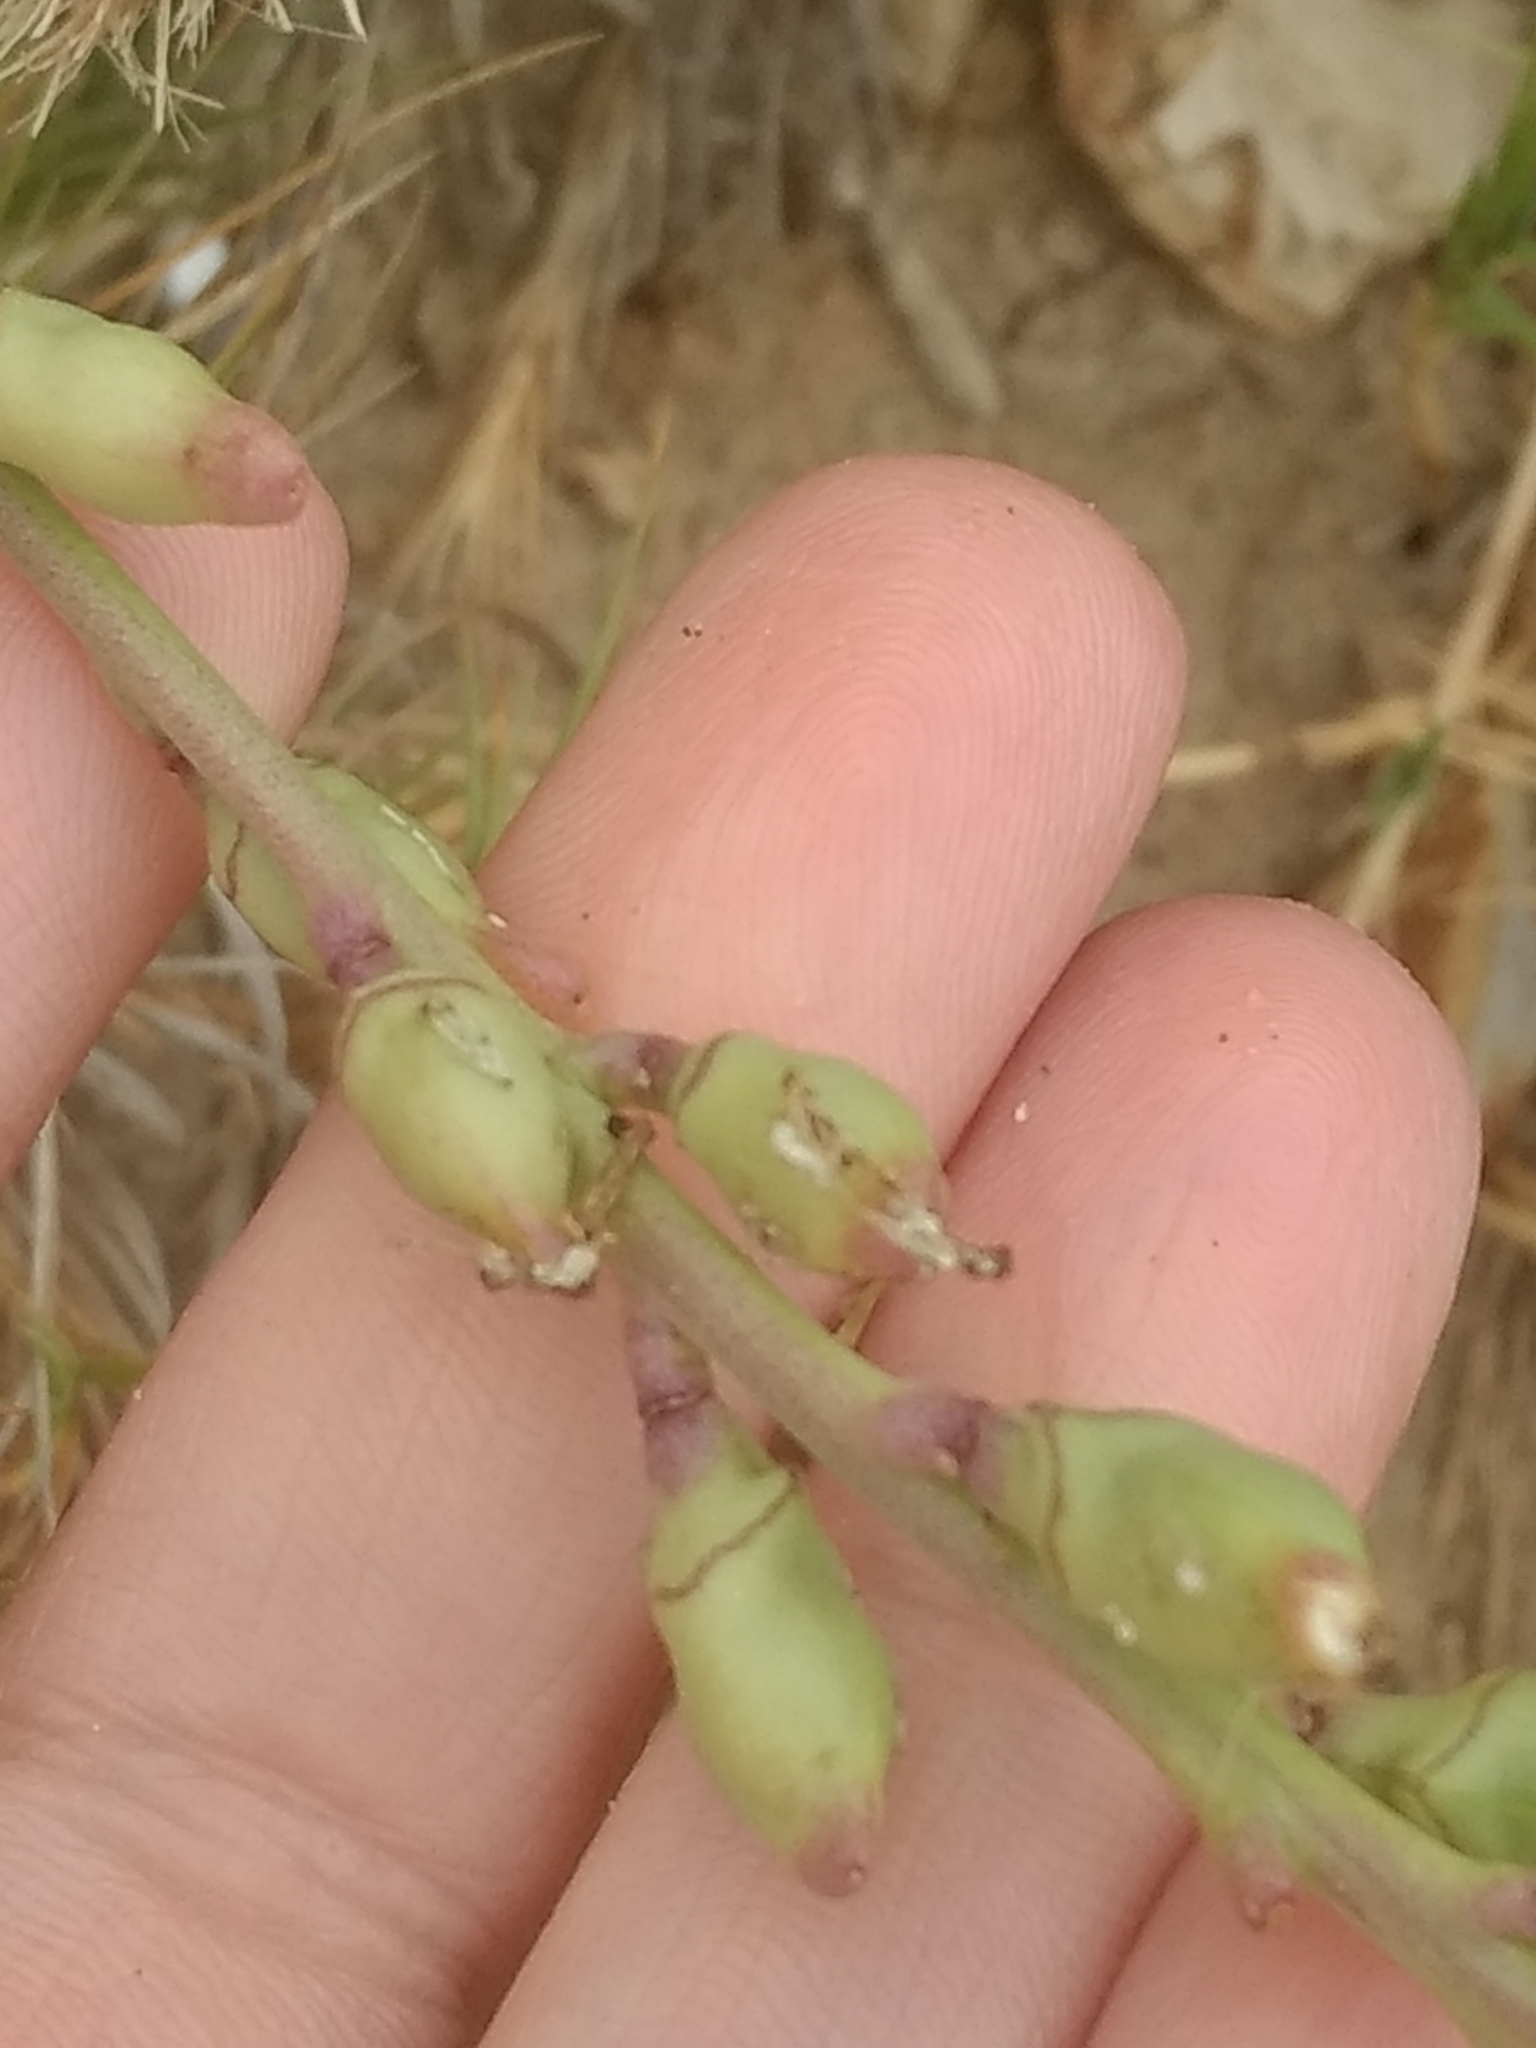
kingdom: Plantae
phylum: Tracheophyta
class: Magnoliopsida
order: Brassicales
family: Brassicaceae
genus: Cakile
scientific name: Cakile maritima
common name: Sea rocket
